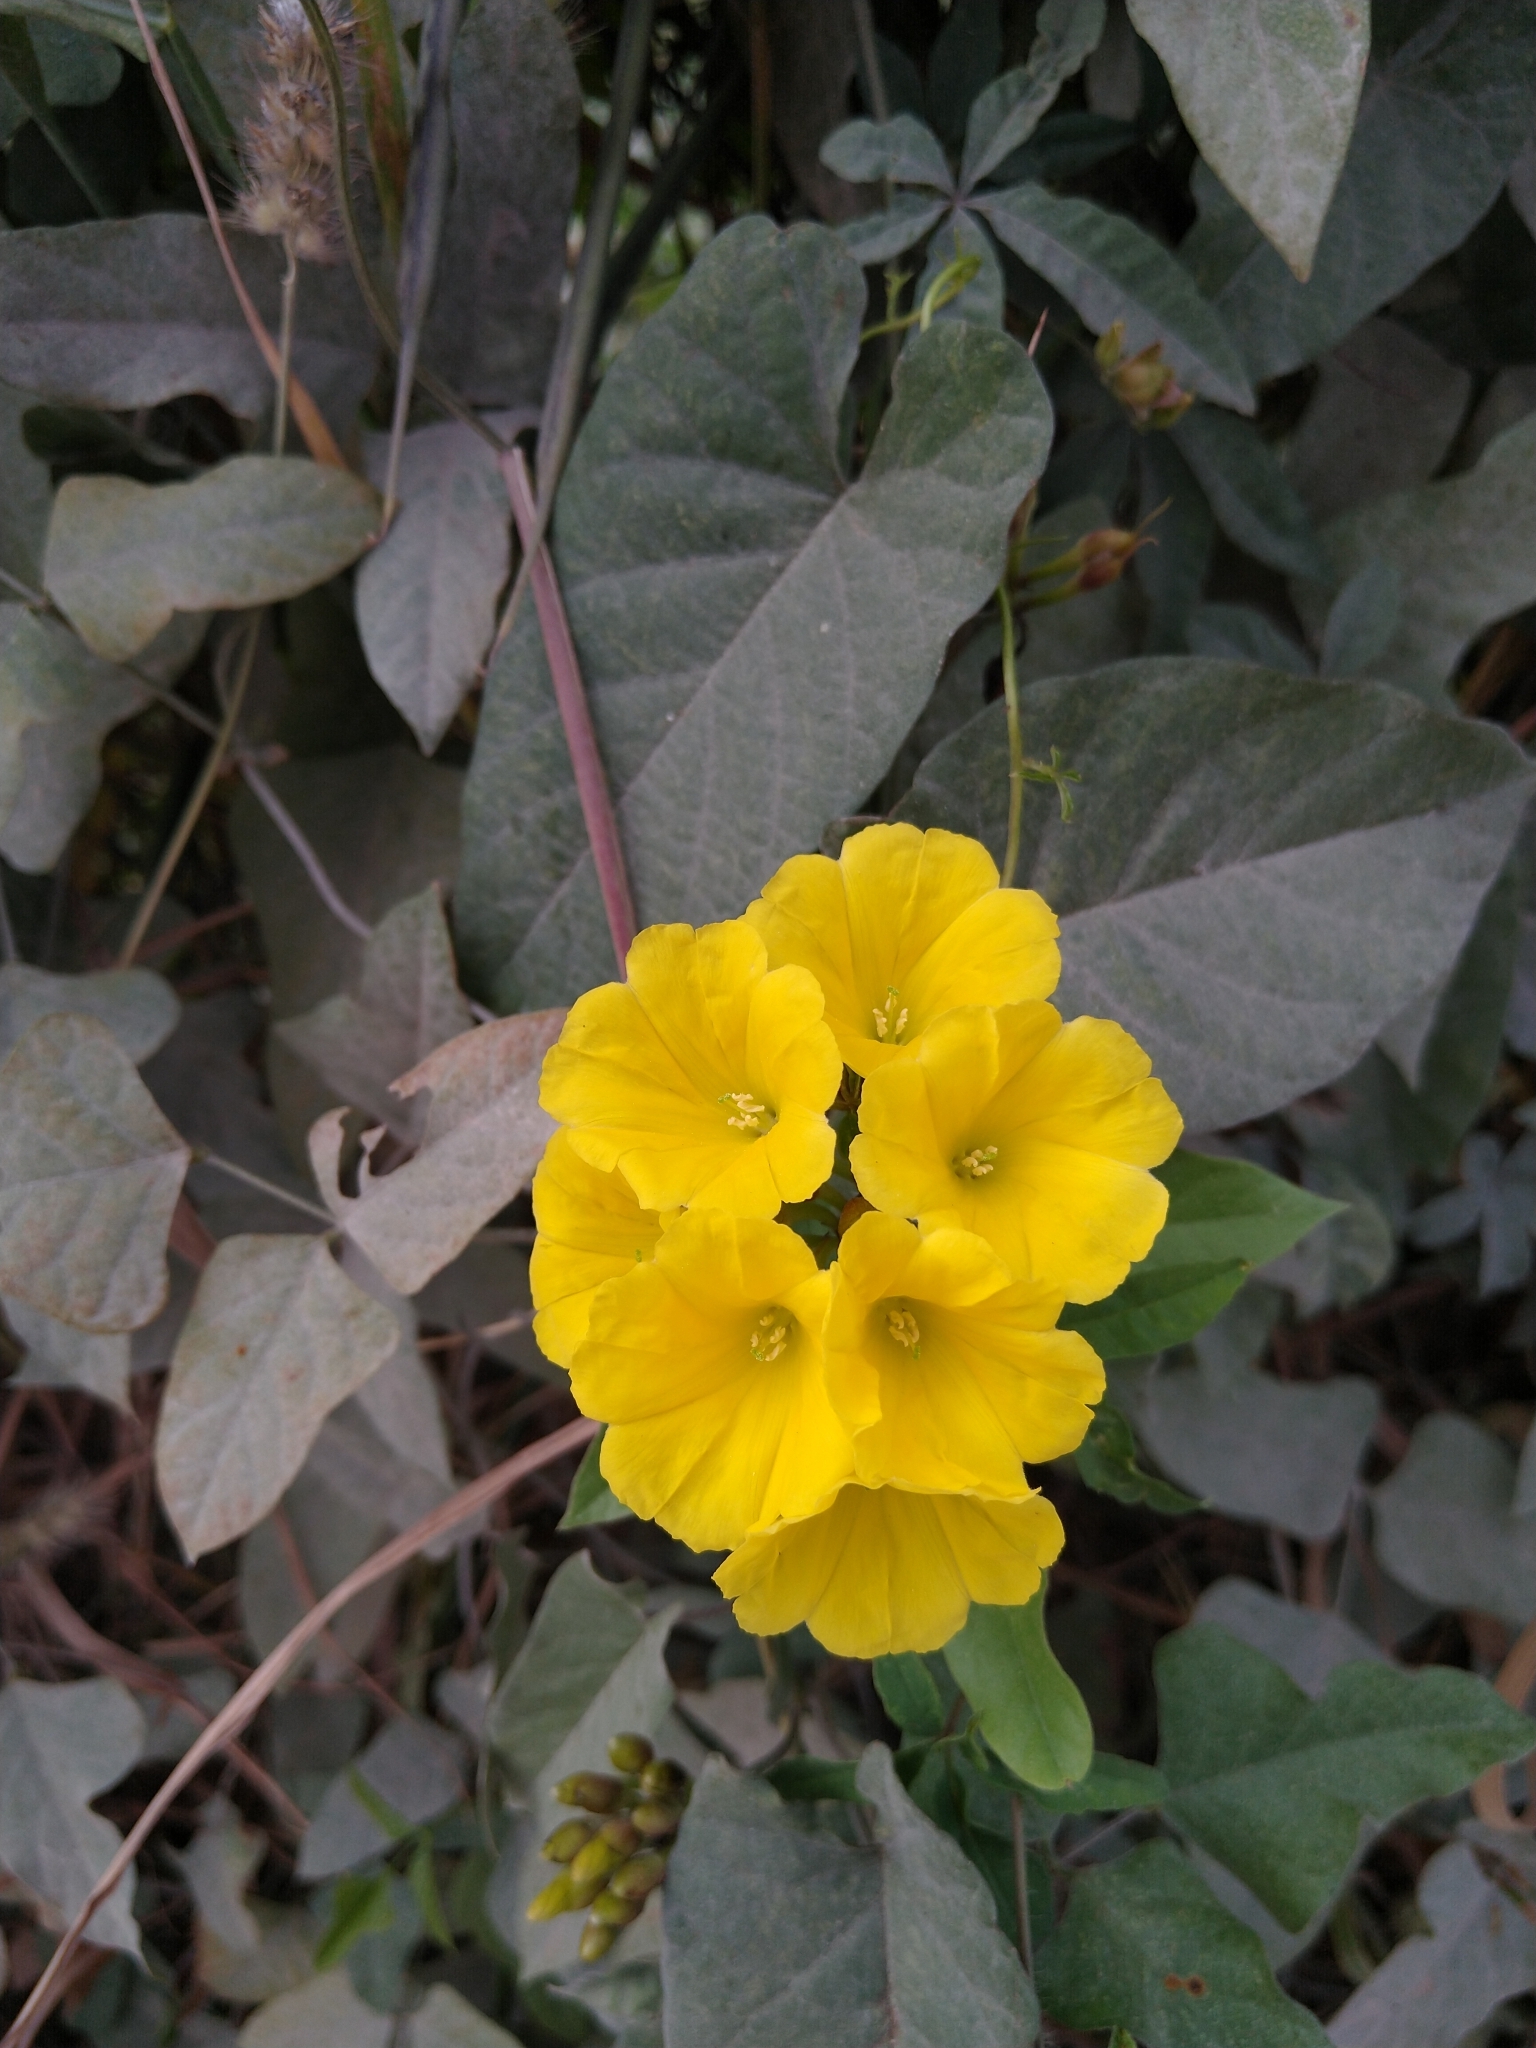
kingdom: Plantae
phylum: Tracheophyta
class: Magnoliopsida
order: Solanales
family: Convolvulaceae
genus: Camonea
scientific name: Camonea umbellata
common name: Hogvine
